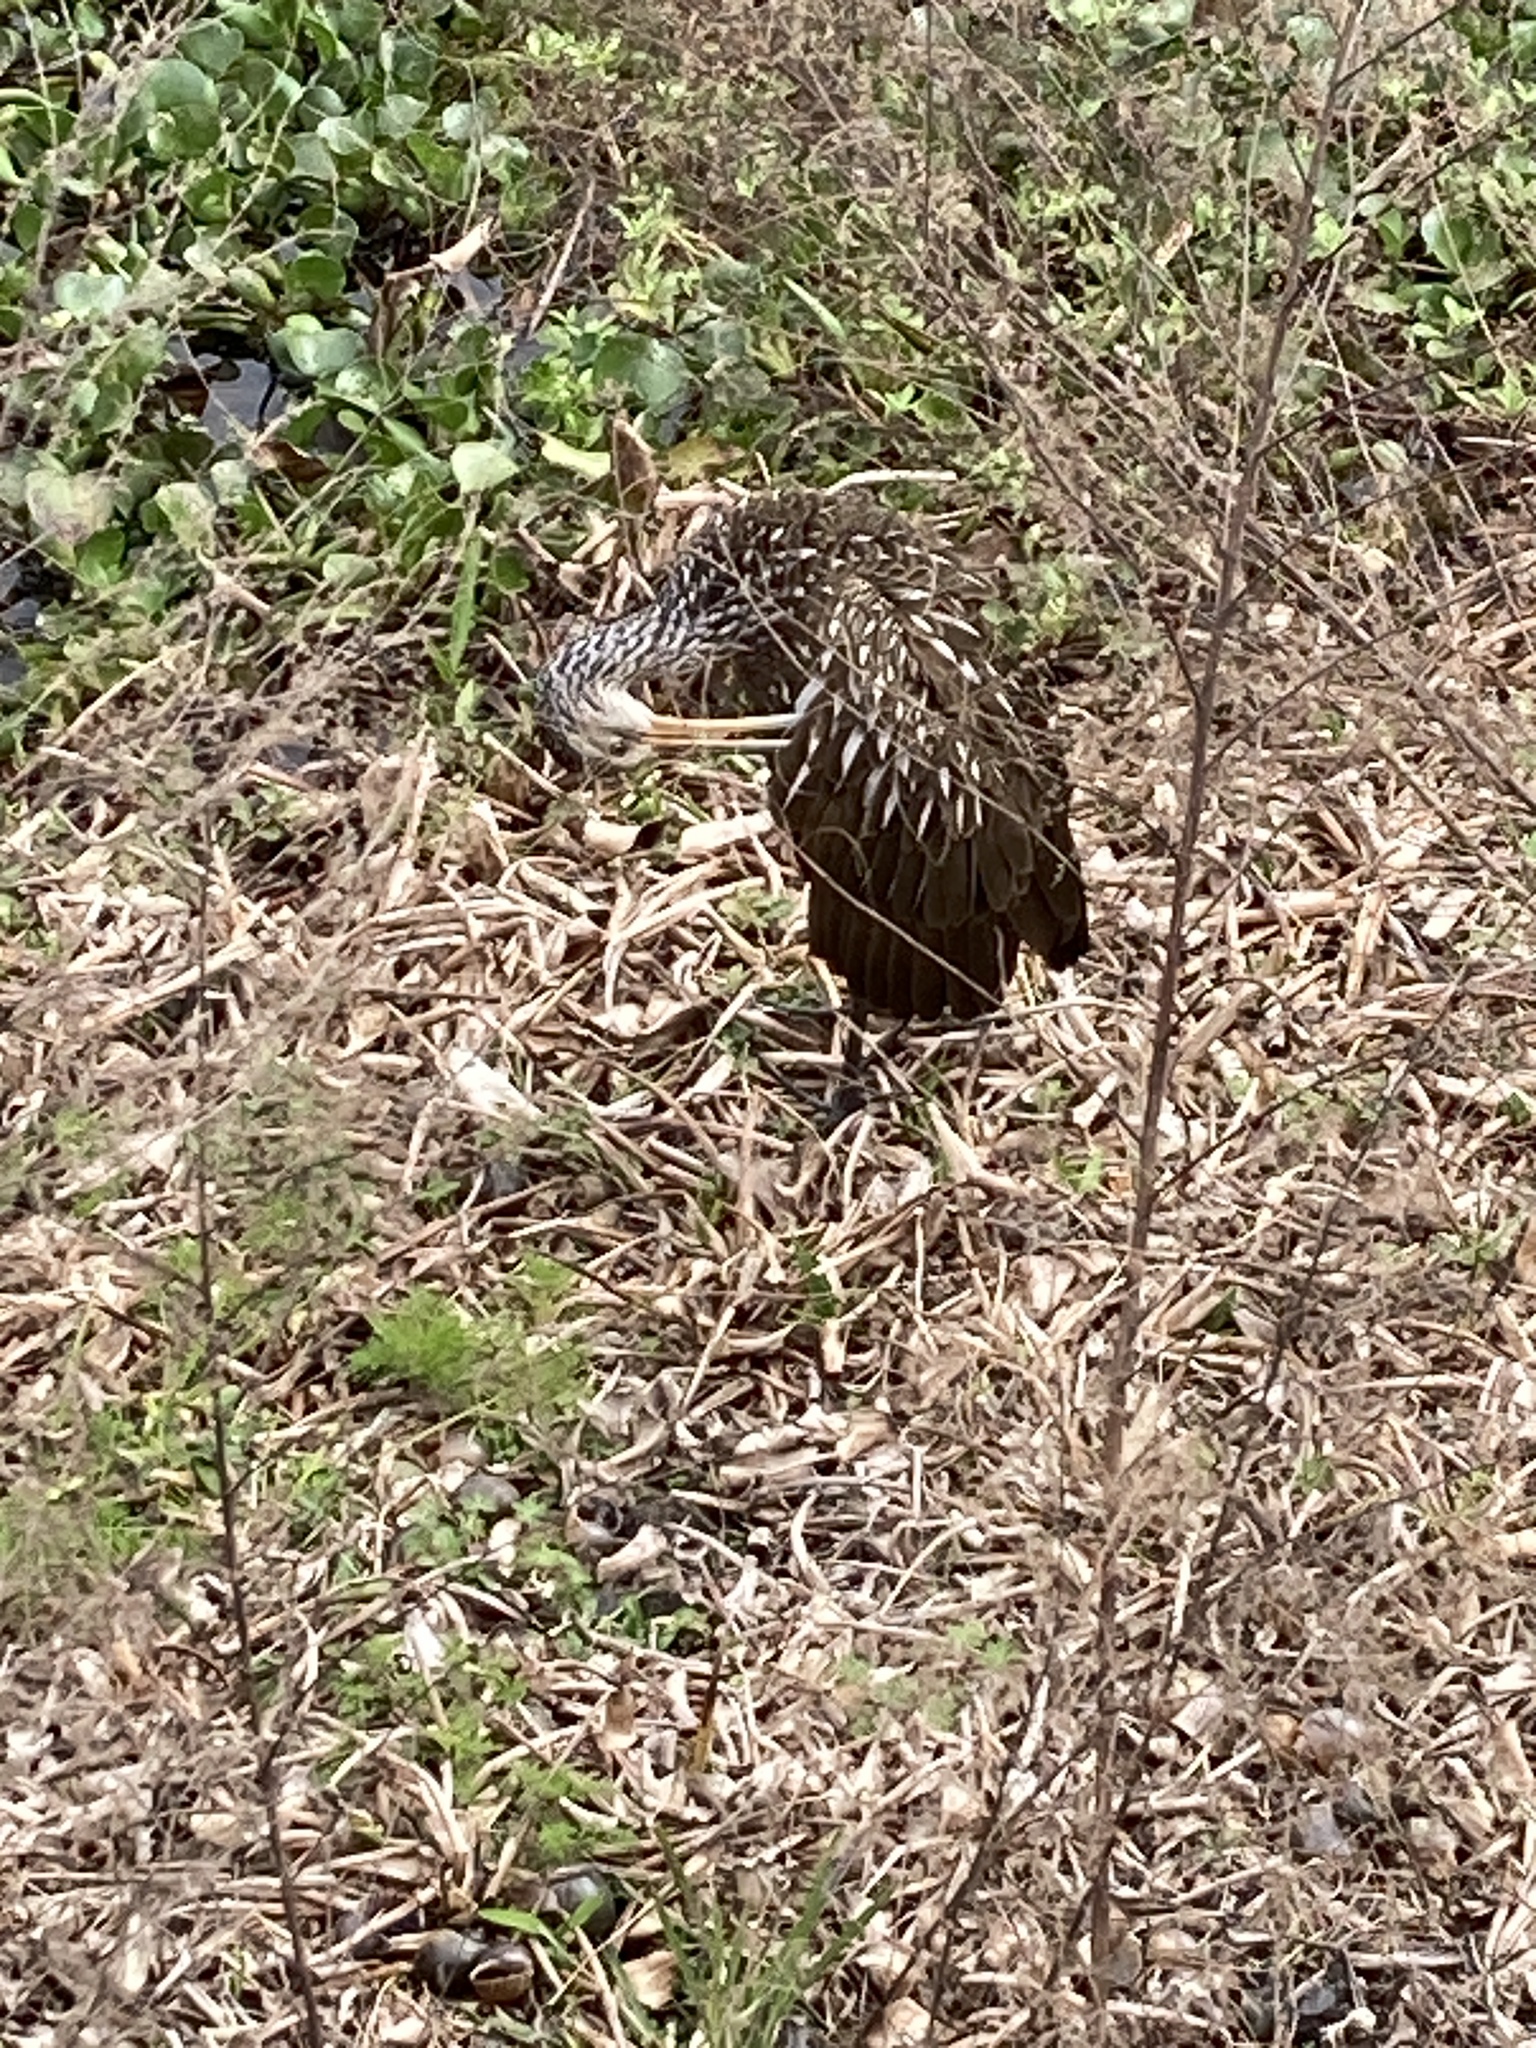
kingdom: Animalia
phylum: Chordata
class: Aves
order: Gruiformes
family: Aramidae
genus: Aramus
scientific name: Aramus guarauna
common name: Limpkin
